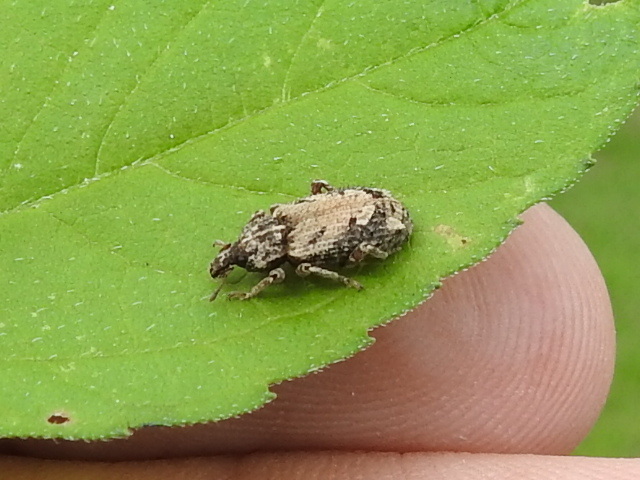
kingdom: Animalia
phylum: Arthropoda
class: Insecta
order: Coleoptera
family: Curculionidae
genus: Listroderes
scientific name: Listroderes costirostris
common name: Weevil
